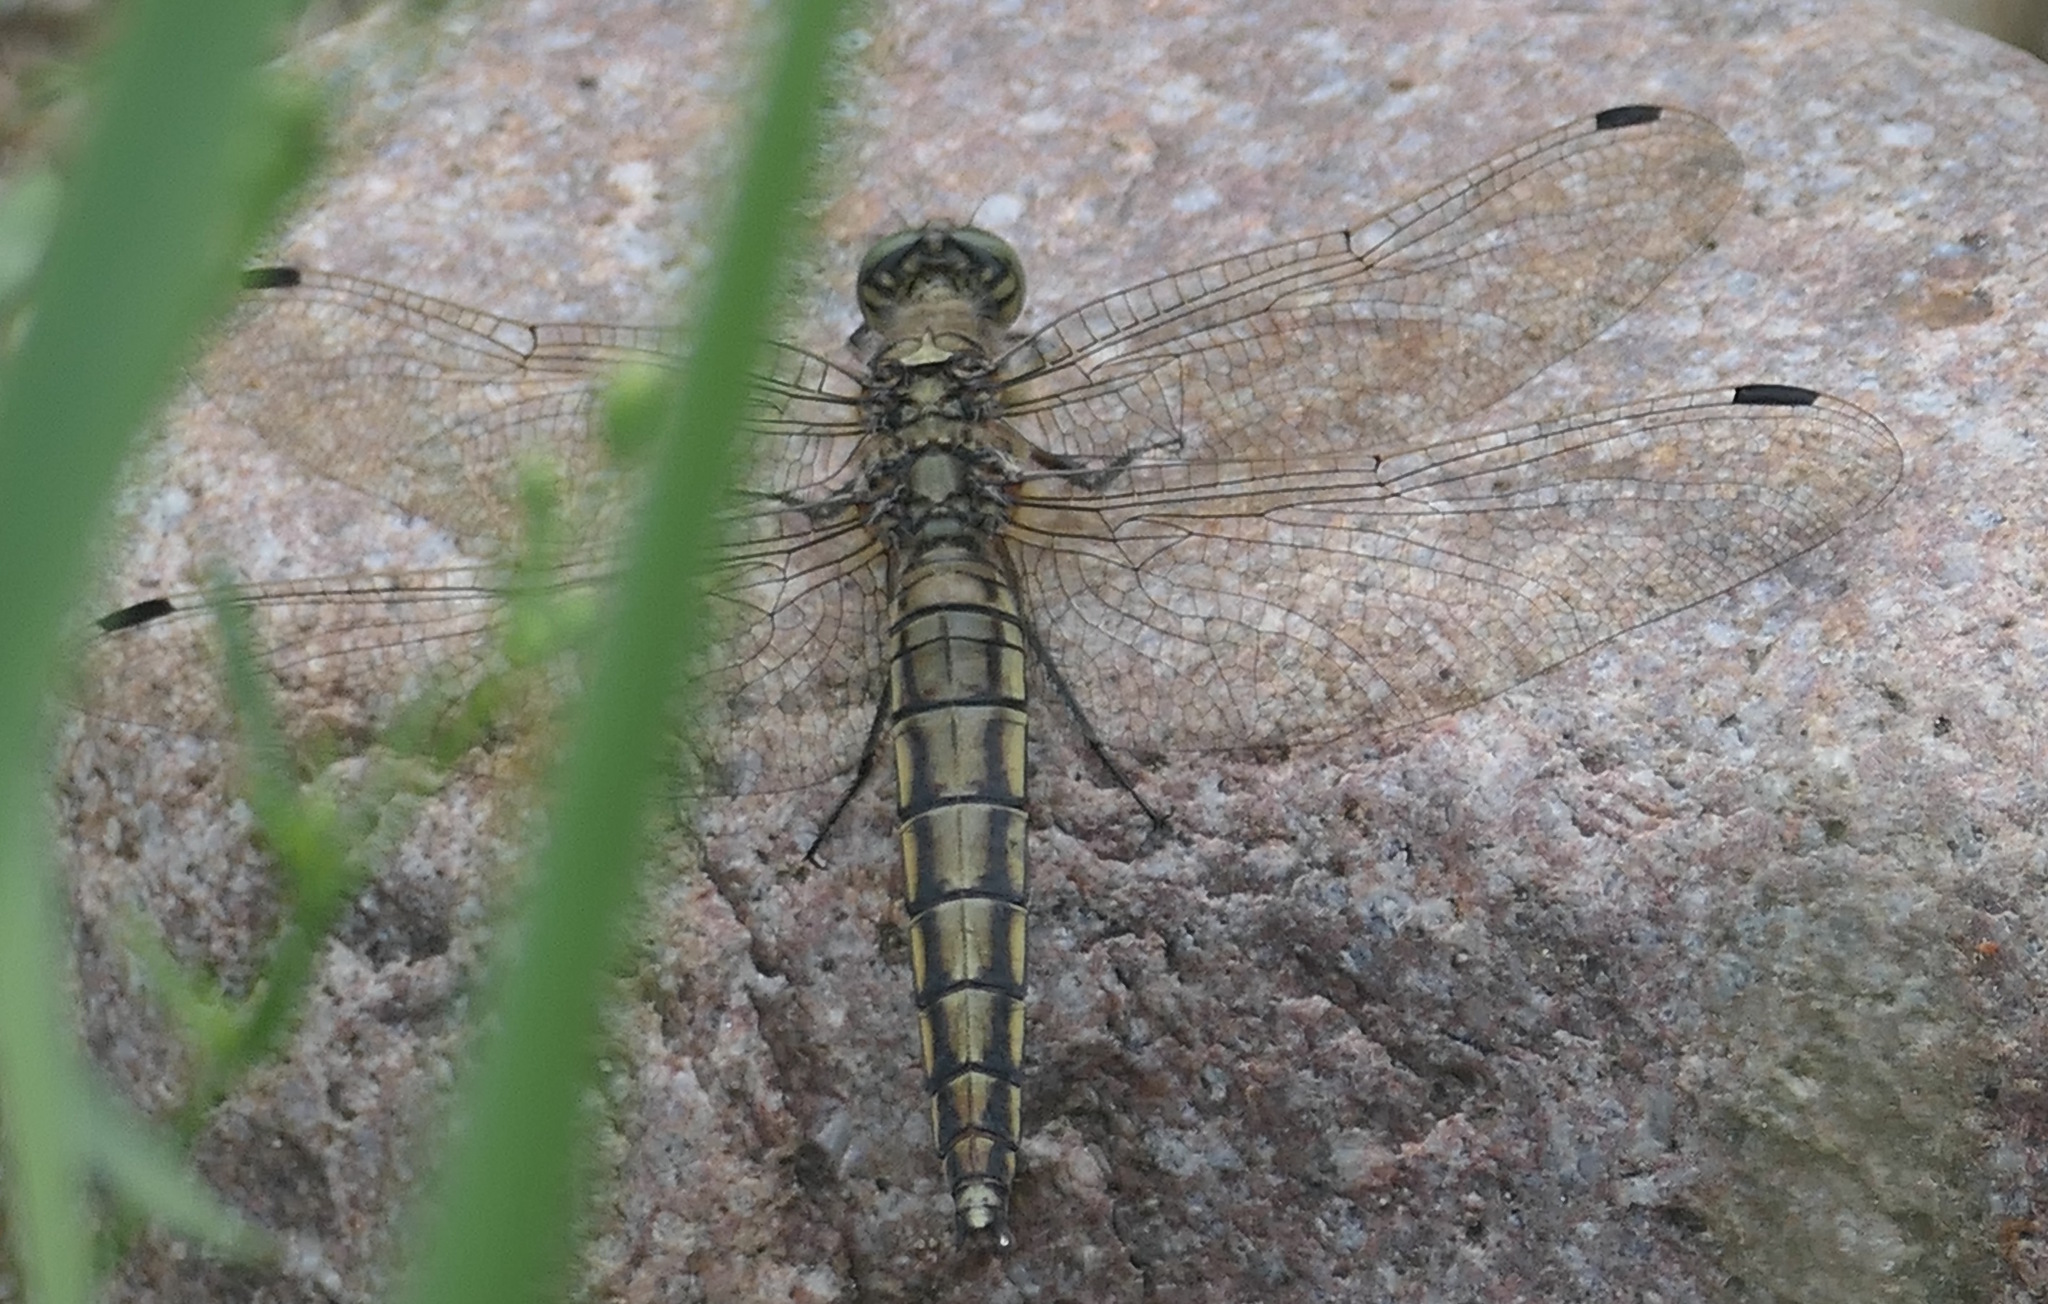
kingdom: Animalia
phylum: Arthropoda
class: Insecta
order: Odonata
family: Libellulidae
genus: Orthetrum
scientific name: Orthetrum cancellatum
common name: Black-tailed skimmer
